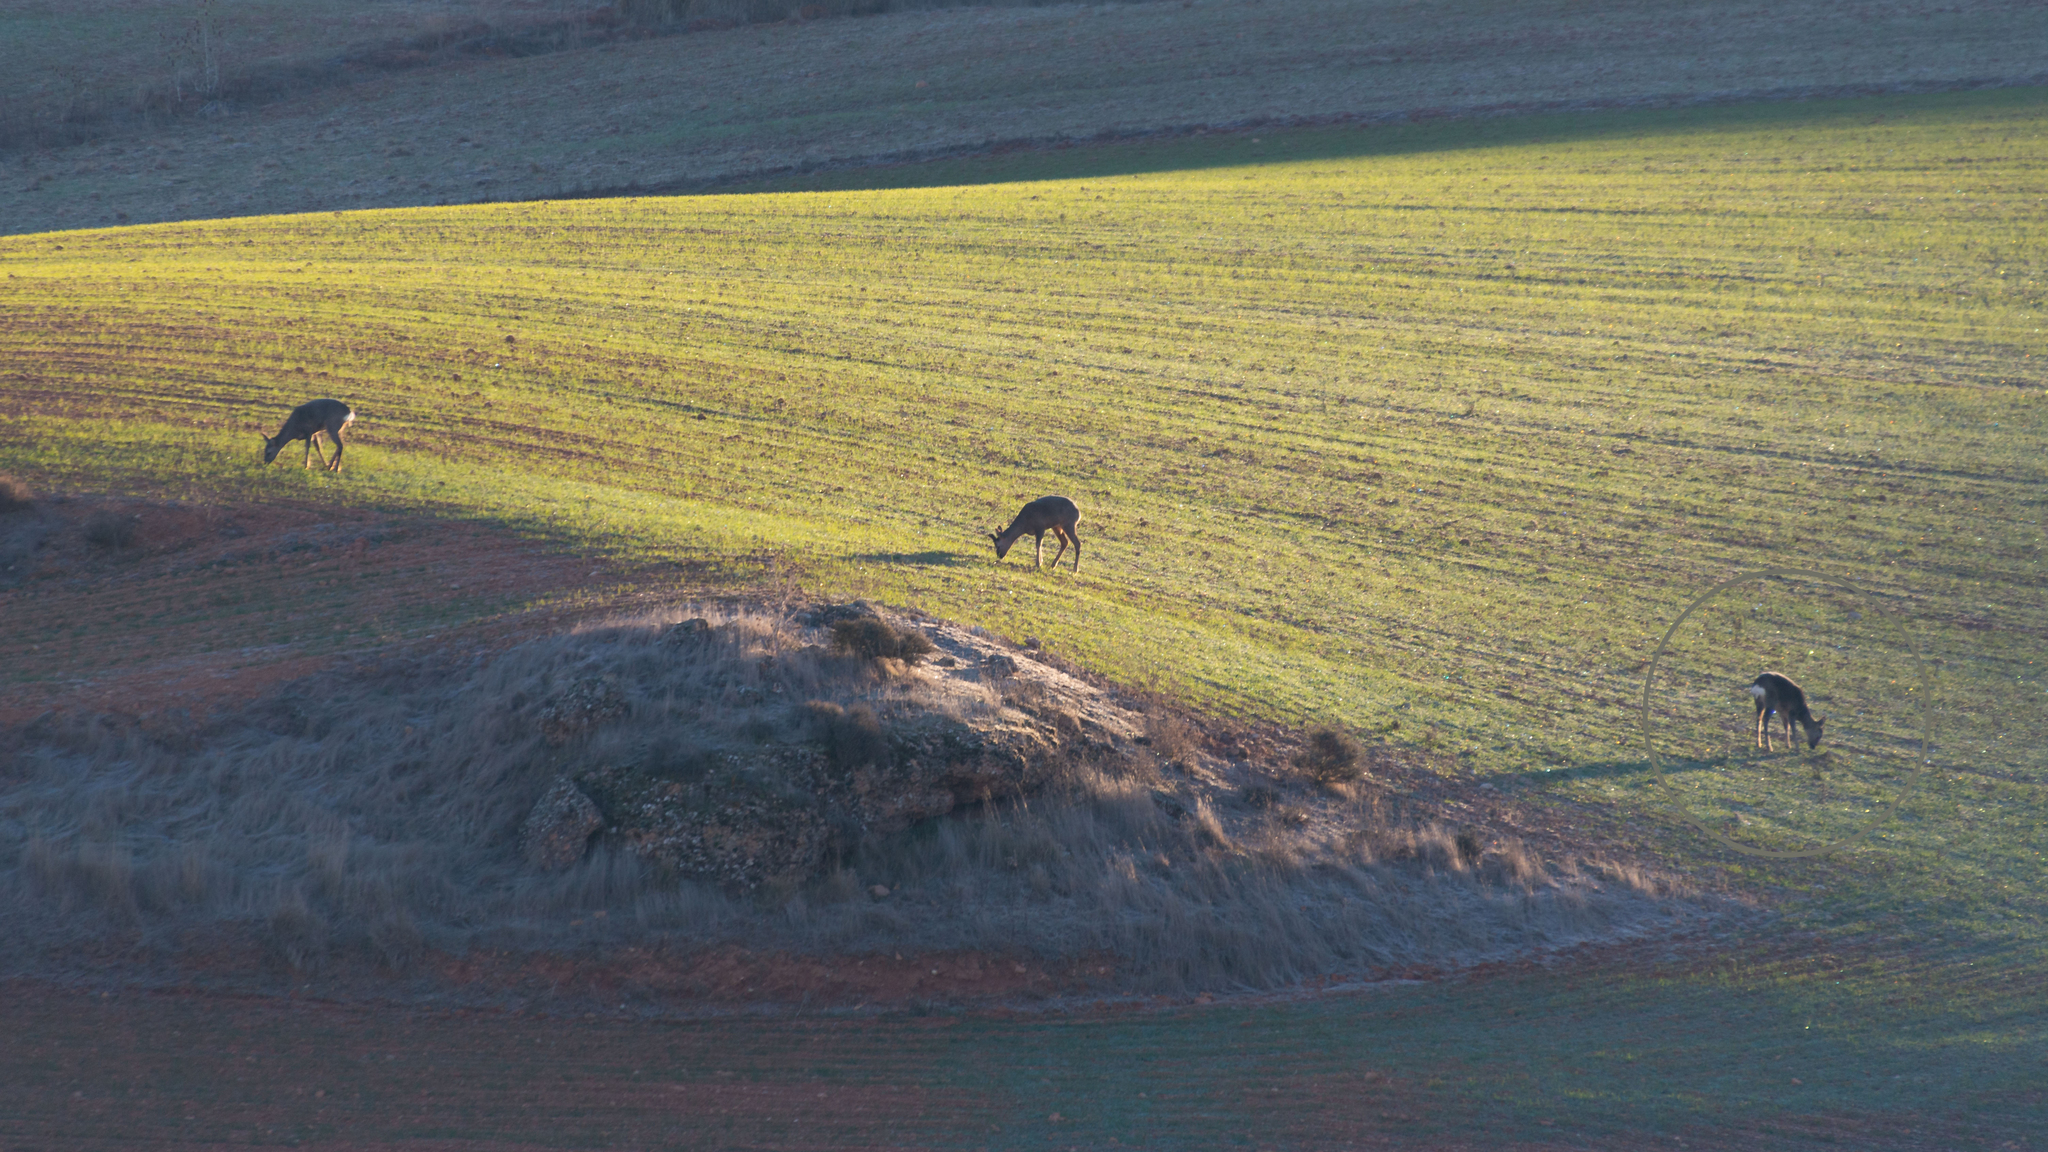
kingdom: Animalia
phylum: Chordata
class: Mammalia
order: Artiodactyla
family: Cervidae
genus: Capreolus
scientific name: Capreolus capreolus
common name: Western roe deer
